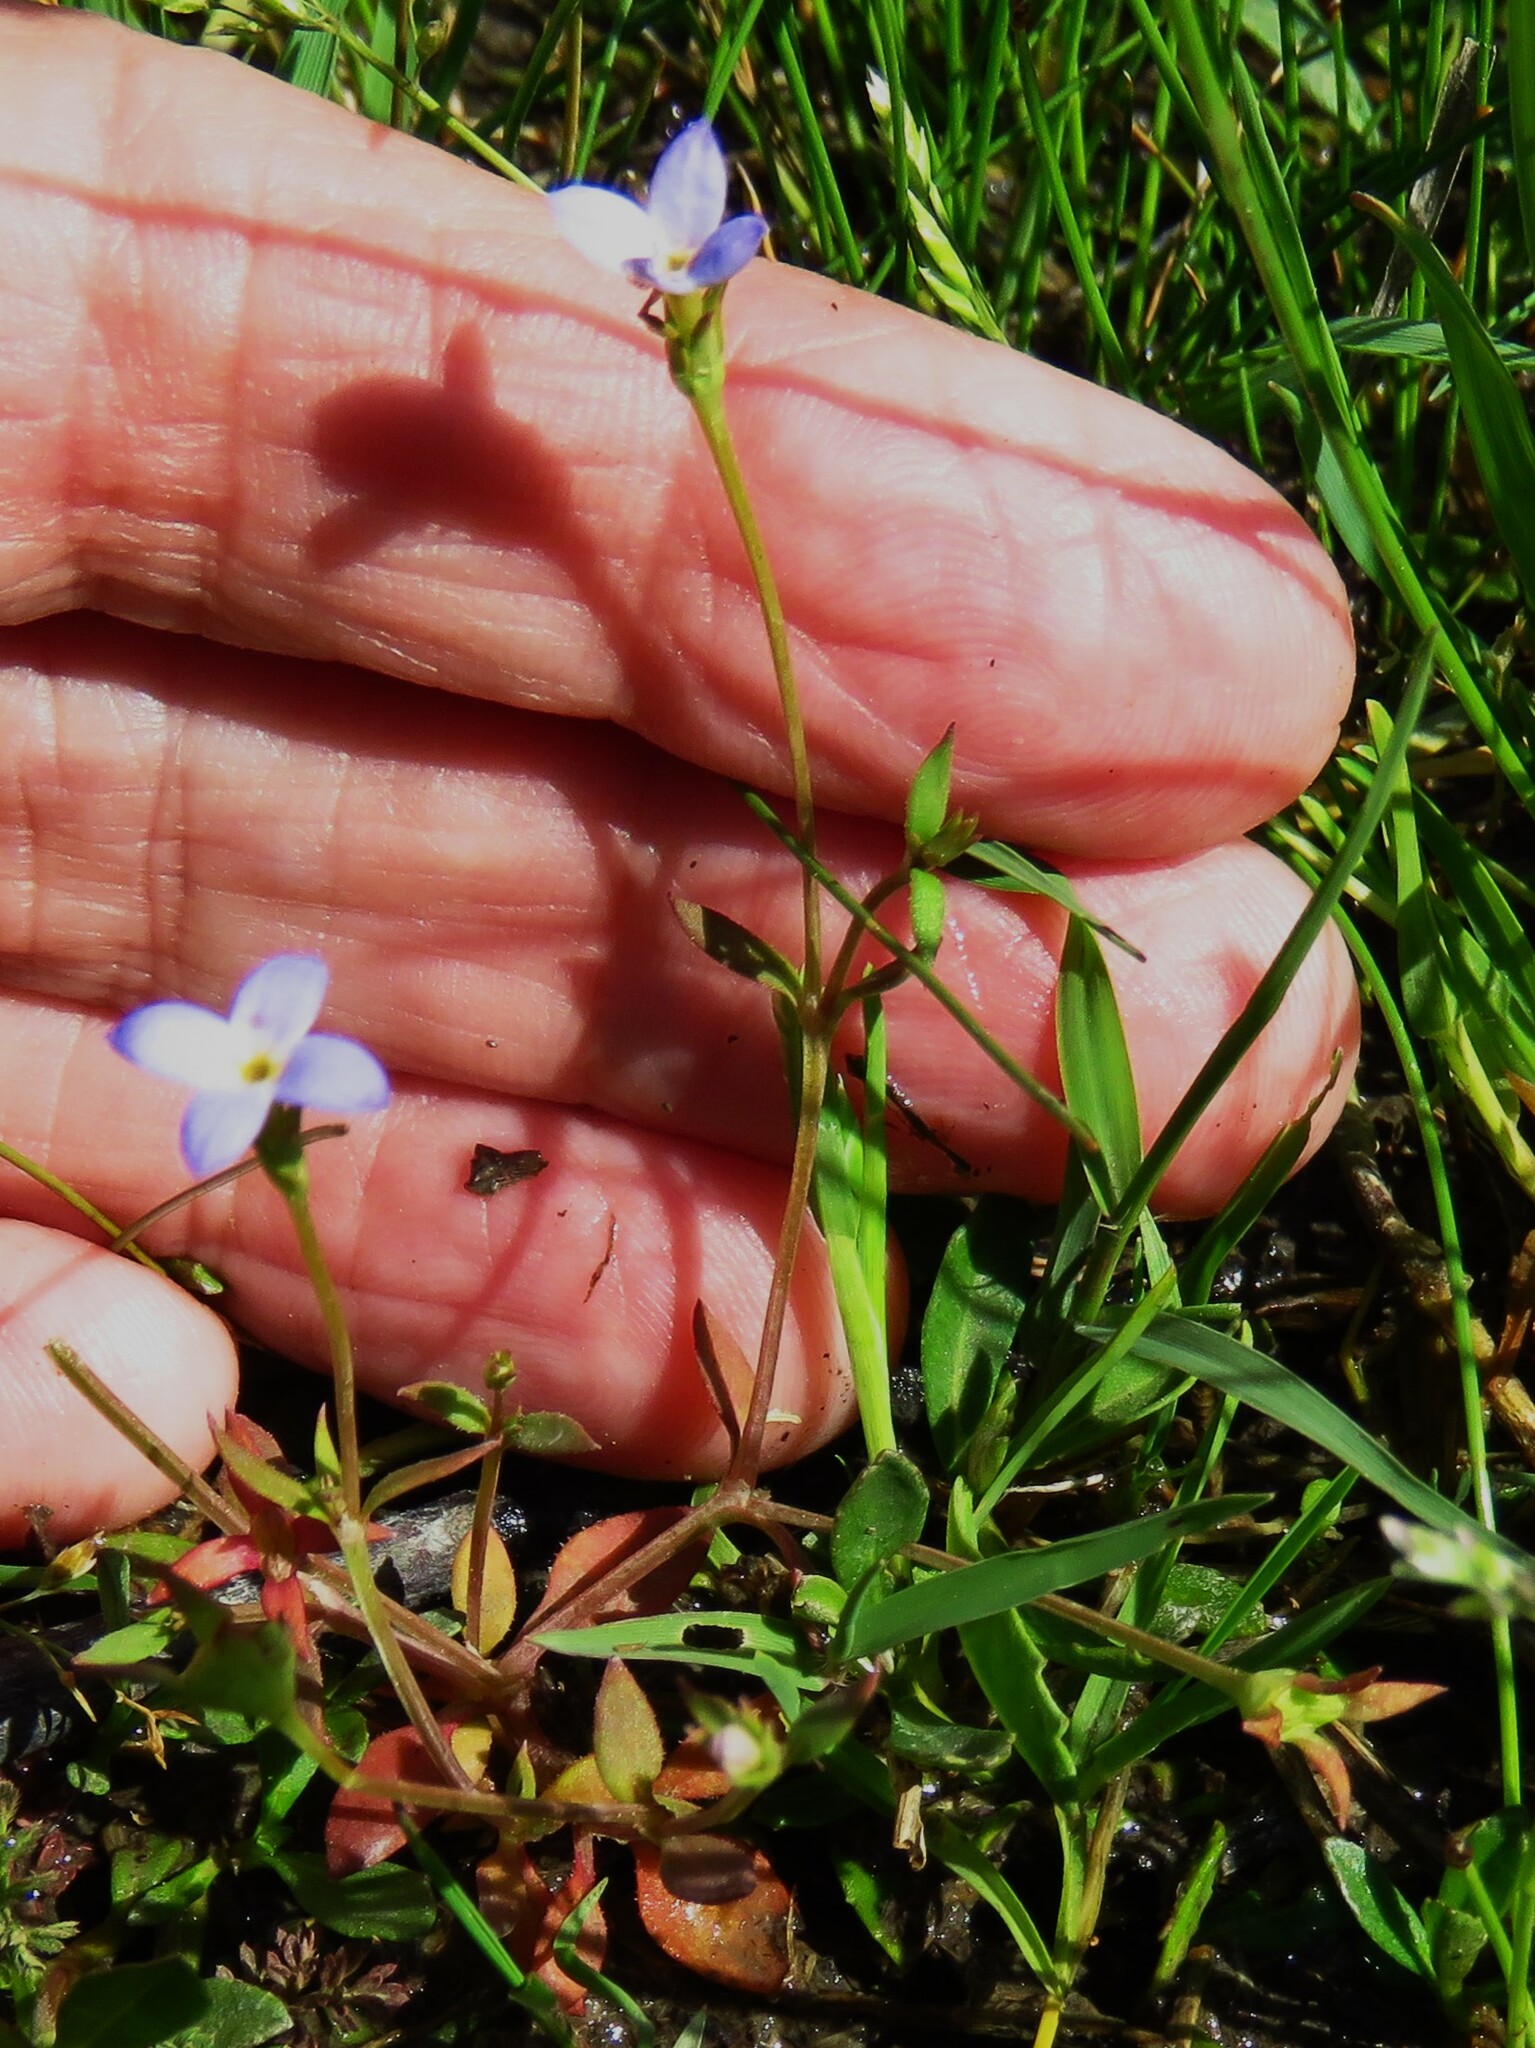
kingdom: Plantae
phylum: Tracheophyta
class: Magnoliopsida
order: Gentianales
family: Rubiaceae
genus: Houstonia
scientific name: Houstonia pusilla
